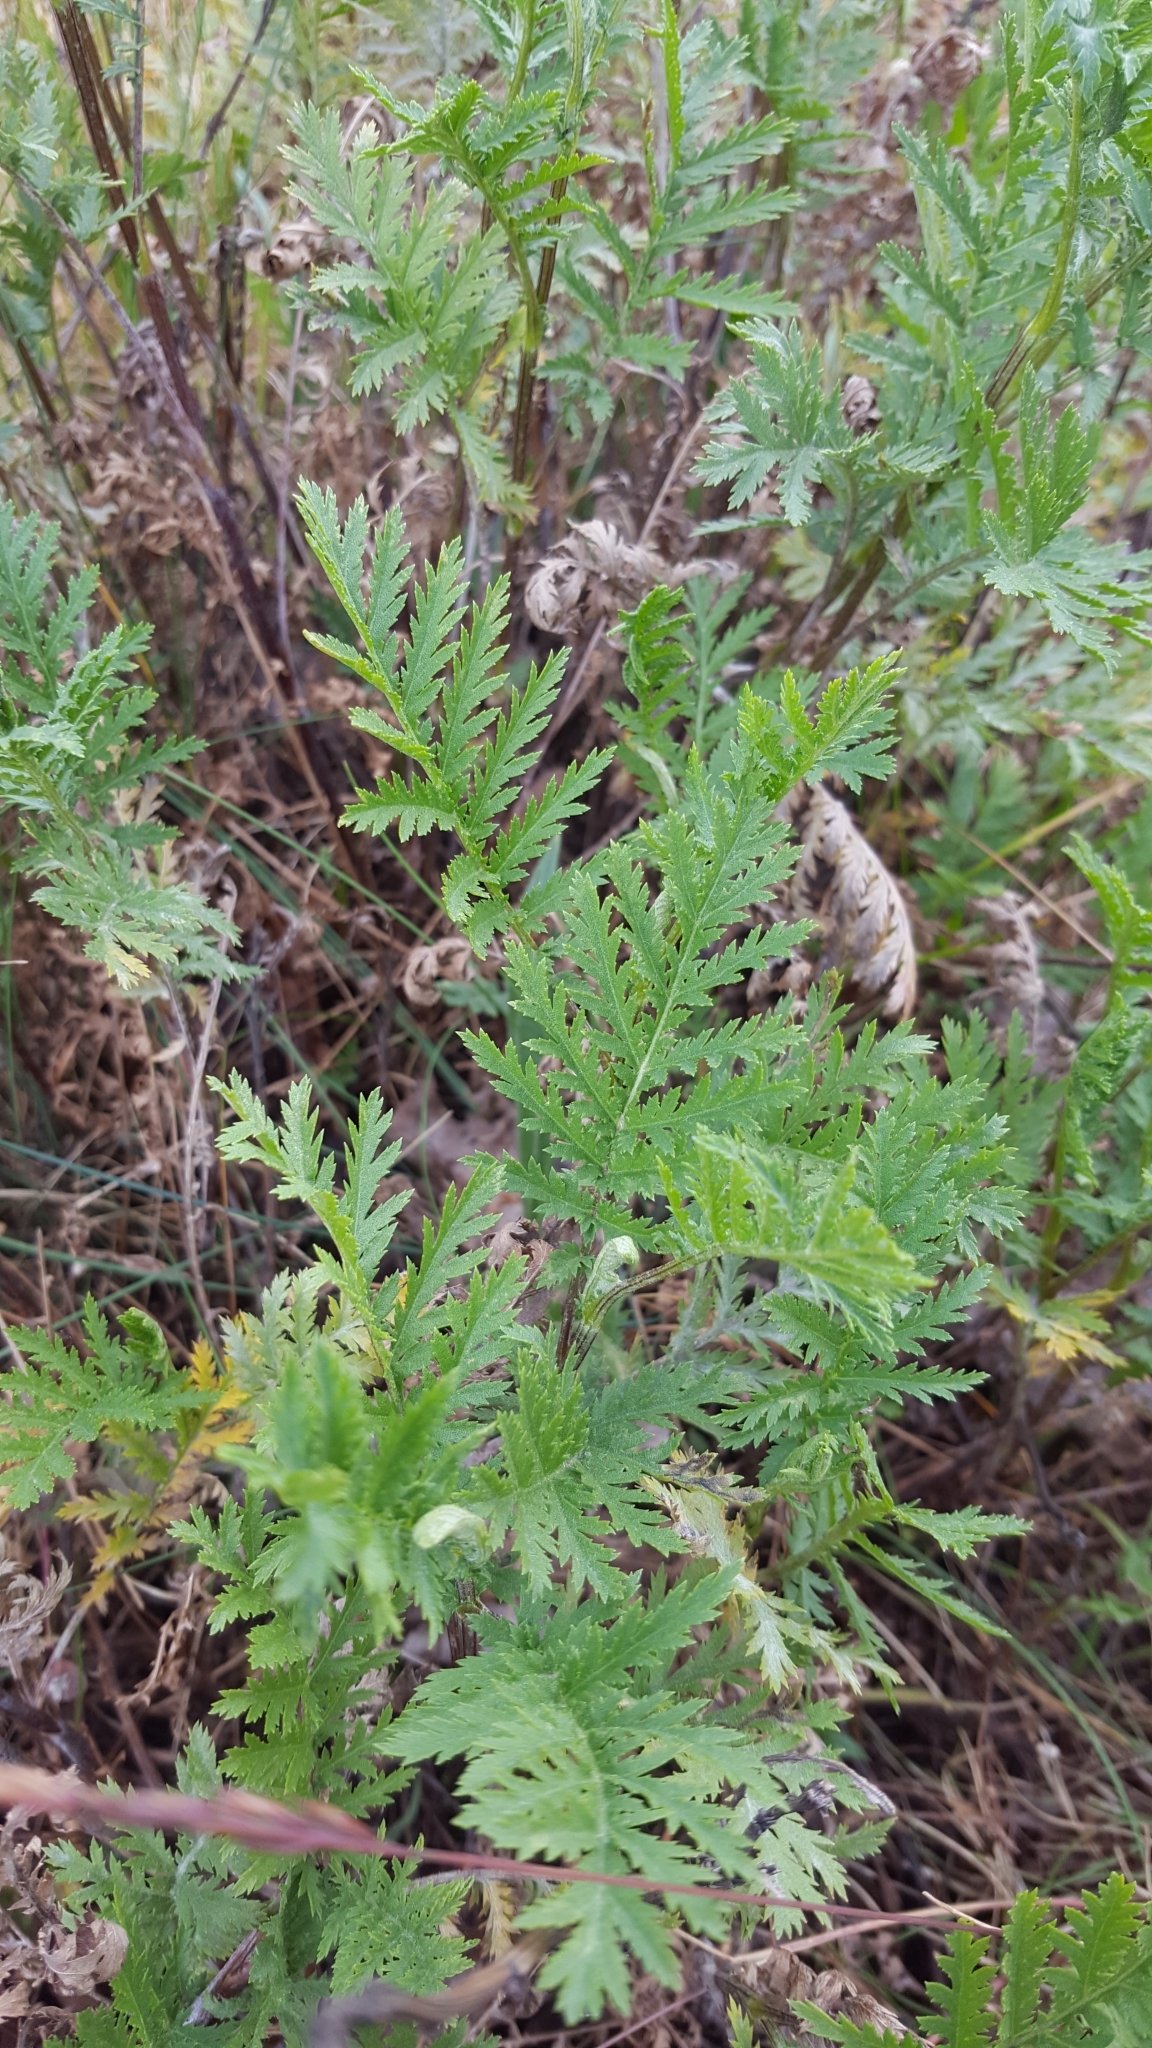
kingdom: Plantae
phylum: Tracheophyta
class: Magnoliopsida
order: Asterales
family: Asteraceae
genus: Tanacetum
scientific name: Tanacetum vulgare
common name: Common tansy
